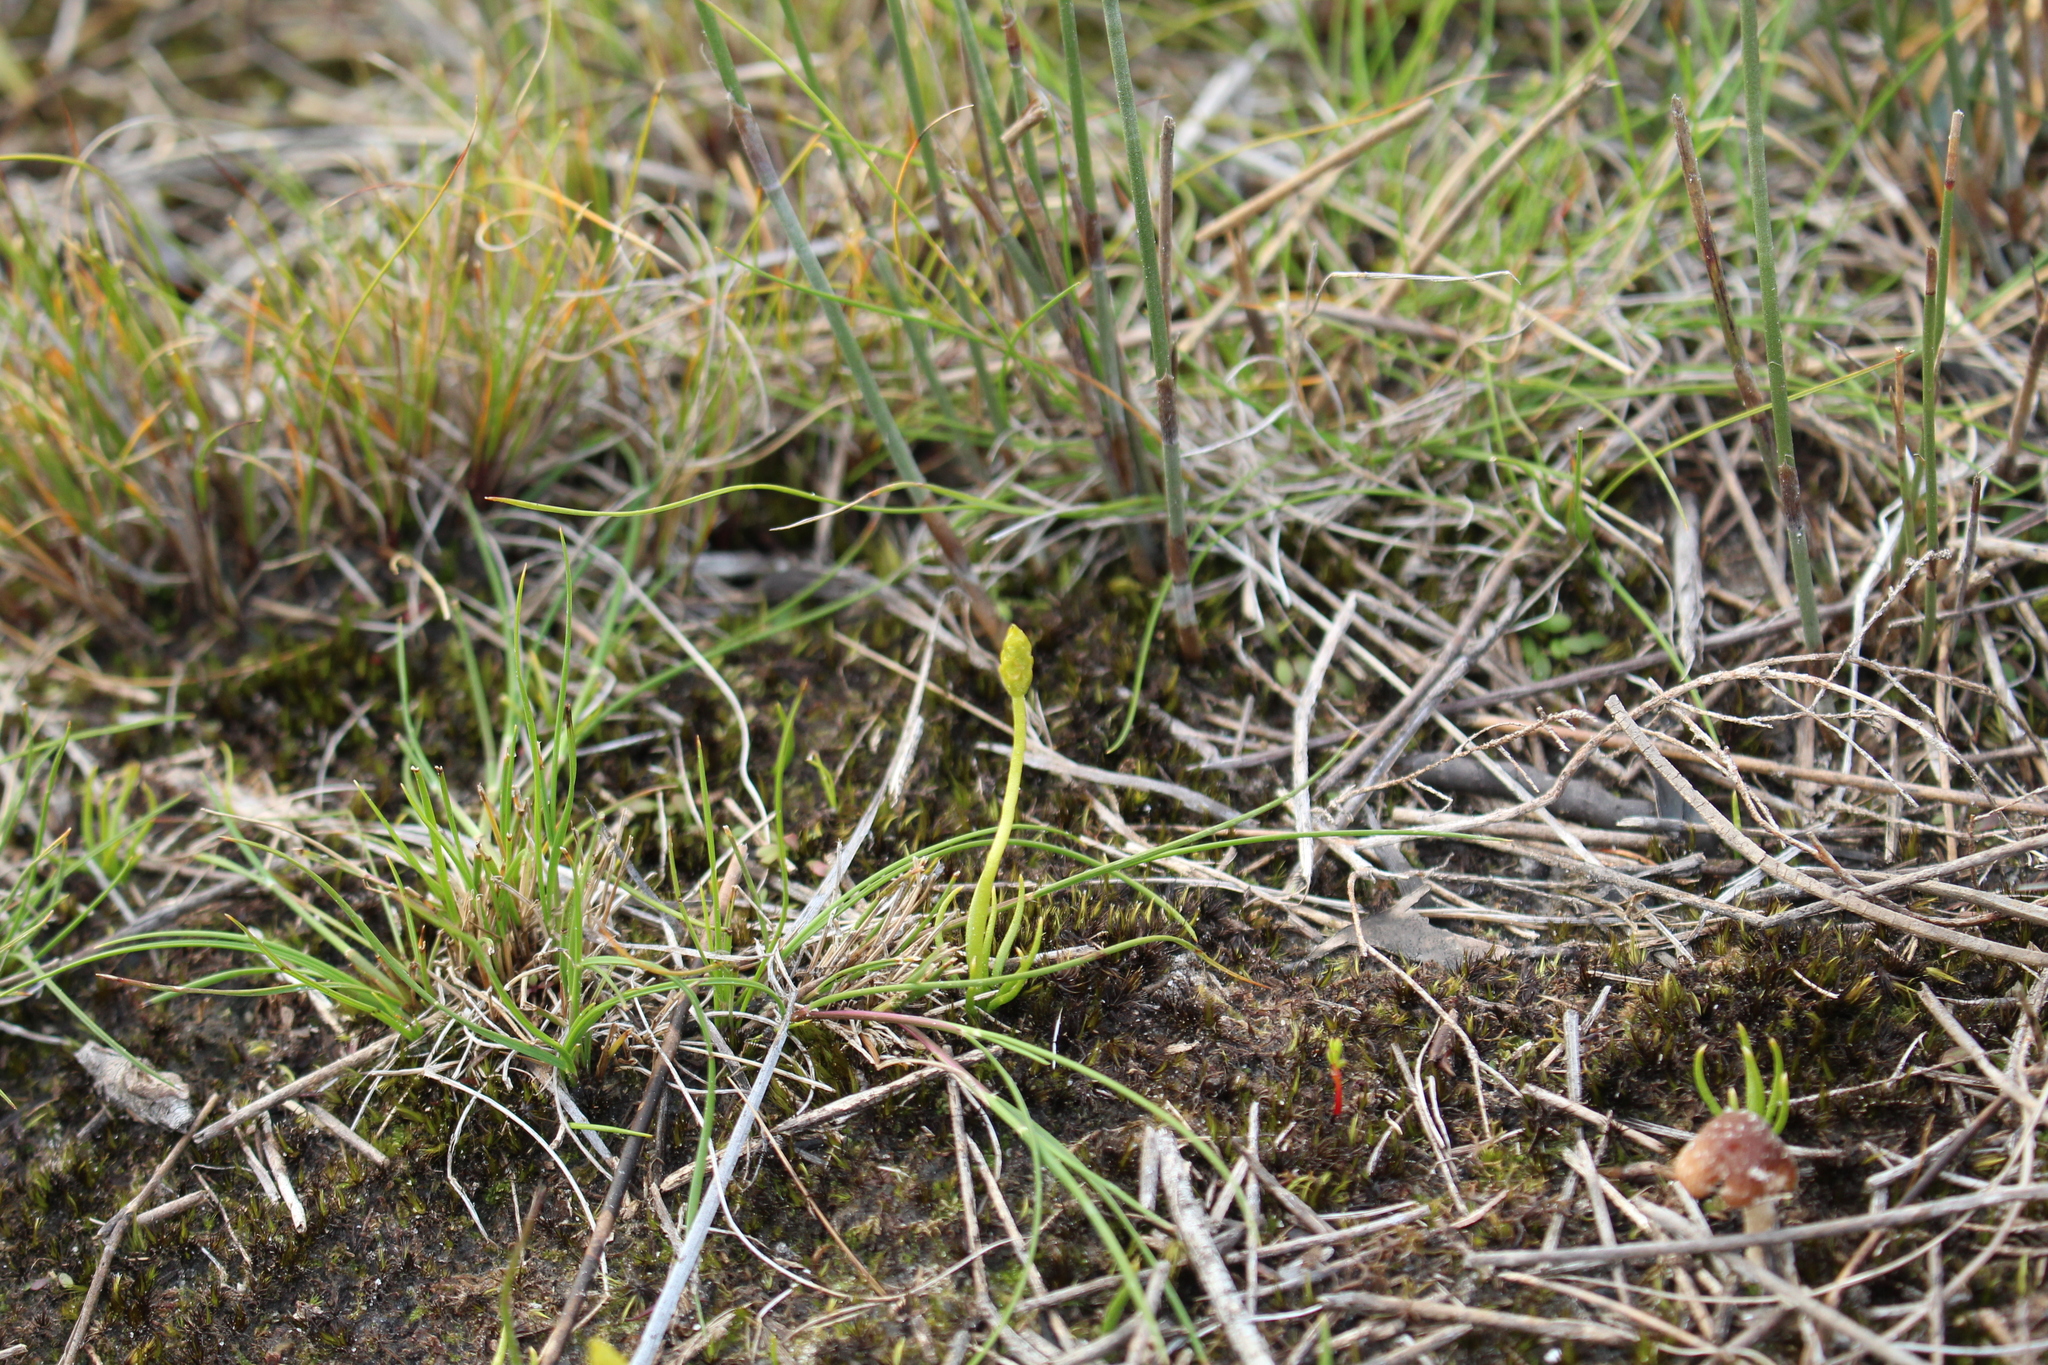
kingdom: Plantae
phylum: Tracheophyta
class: Lycopodiopsida
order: Lycopodiales
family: Lycopodiaceae
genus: Phylloglossum
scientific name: Phylloglossum drummondii
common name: Pigmy-club-moss
